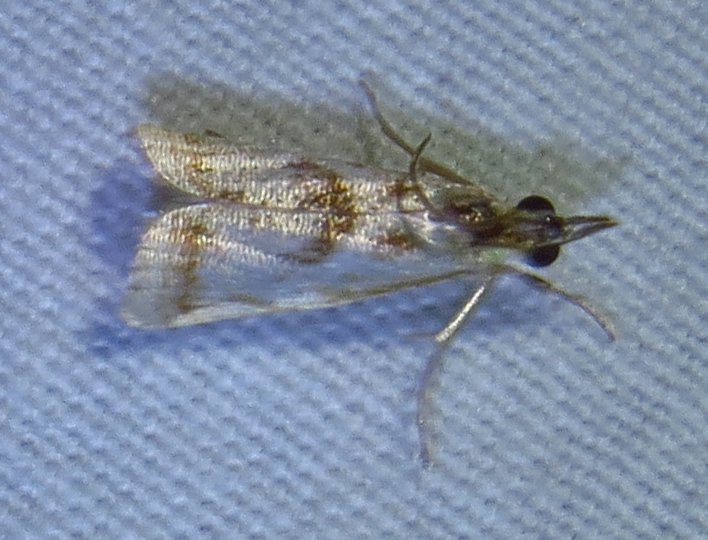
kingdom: Animalia
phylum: Arthropoda
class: Insecta
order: Lepidoptera
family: Crambidae
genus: Microcrambus
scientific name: Microcrambus elegans
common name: Elegant grass-veneer
